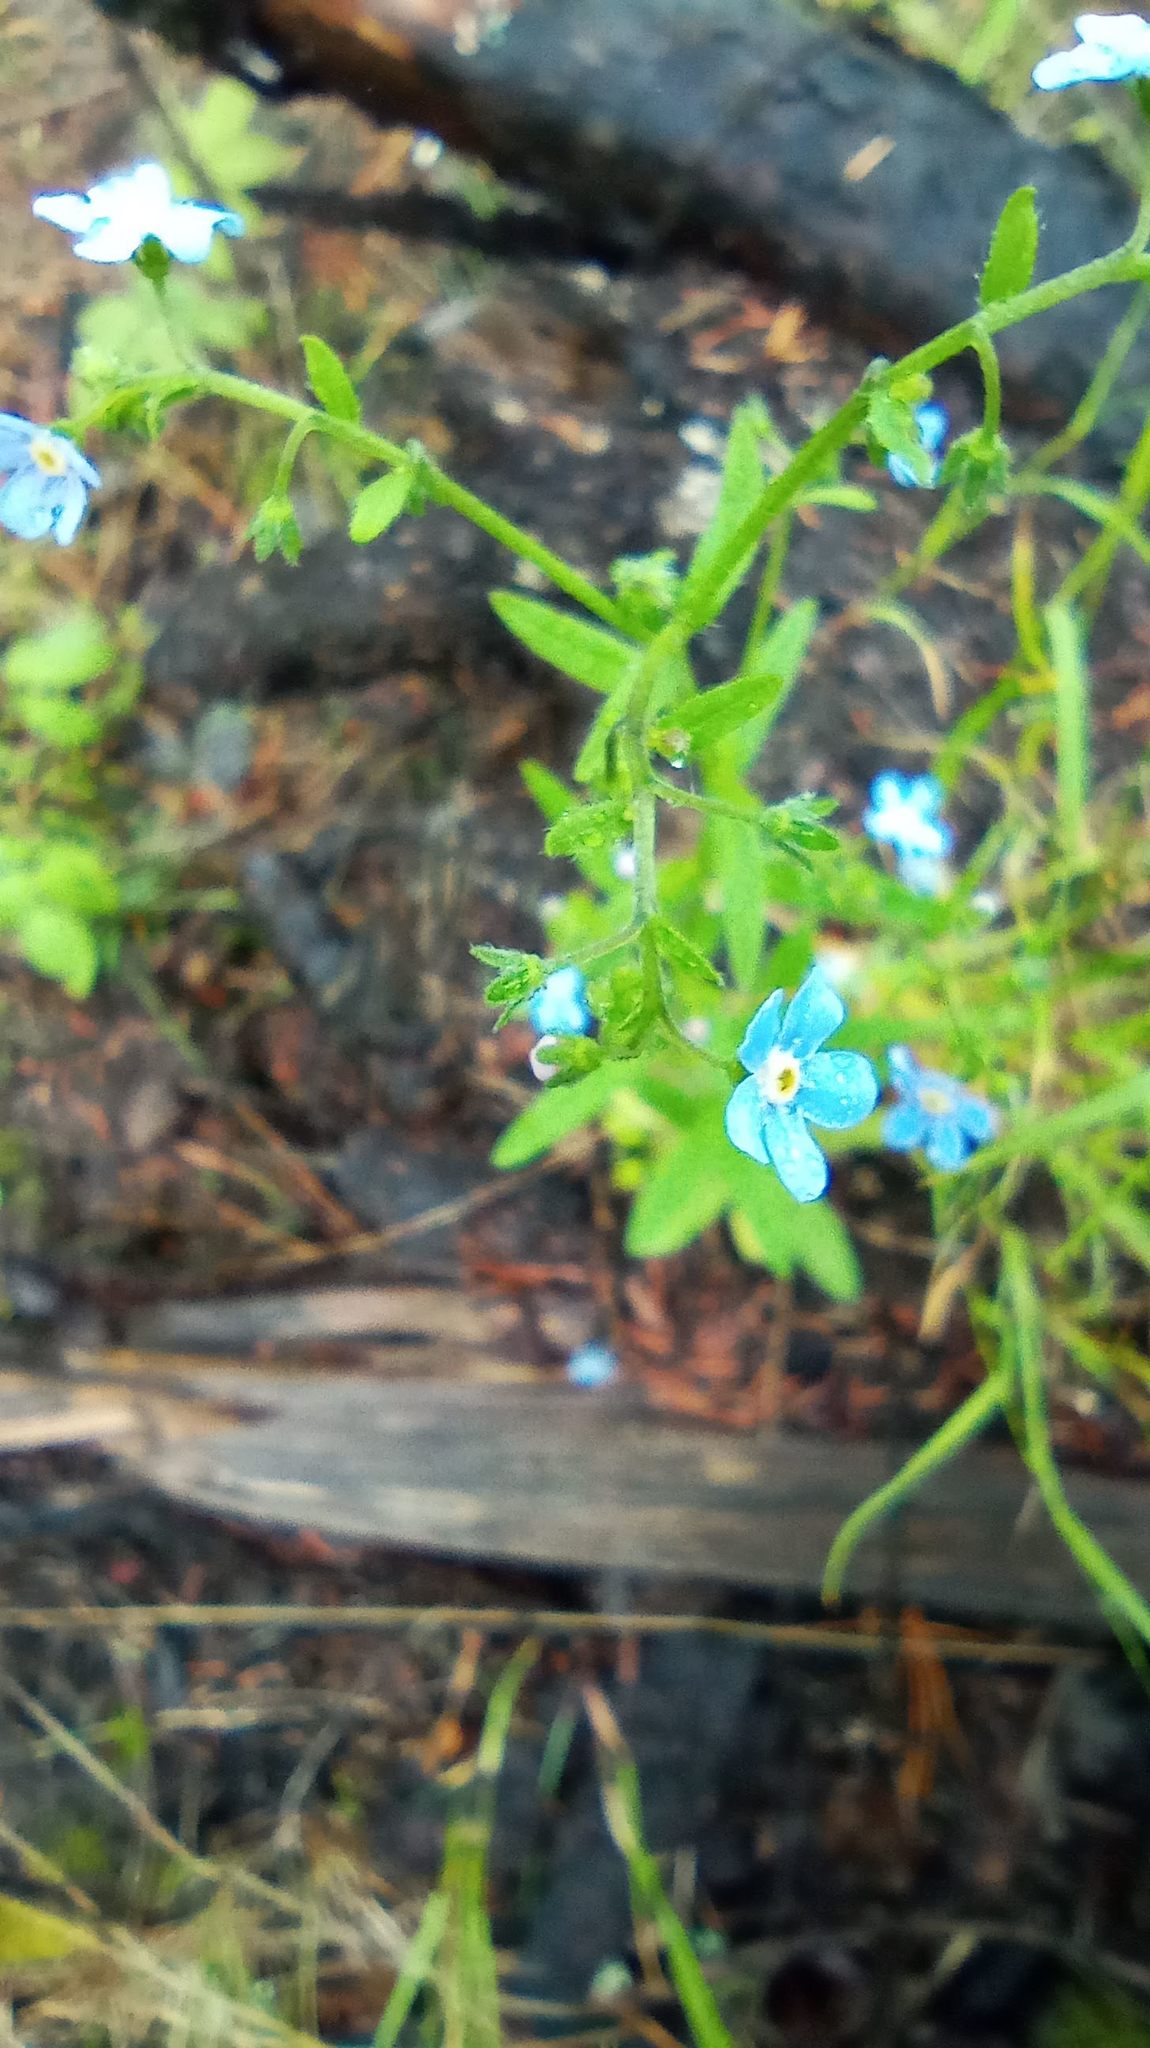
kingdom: Plantae
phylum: Tracheophyta
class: Magnoliopsida
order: Boraginales
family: Boraginaceae
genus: Hackelia
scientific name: Hackelia deflexa
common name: Nodding stickseed
